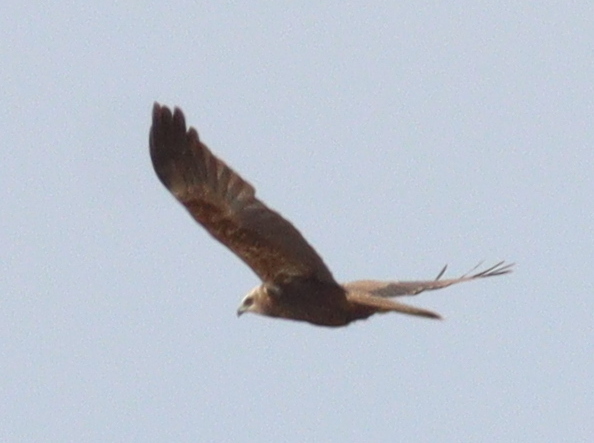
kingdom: Animalia
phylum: Chordata
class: Aves
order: Accipitriformes
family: Accipitridae
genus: Circus
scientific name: Circus aeruginosus
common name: Western marsh harrier
